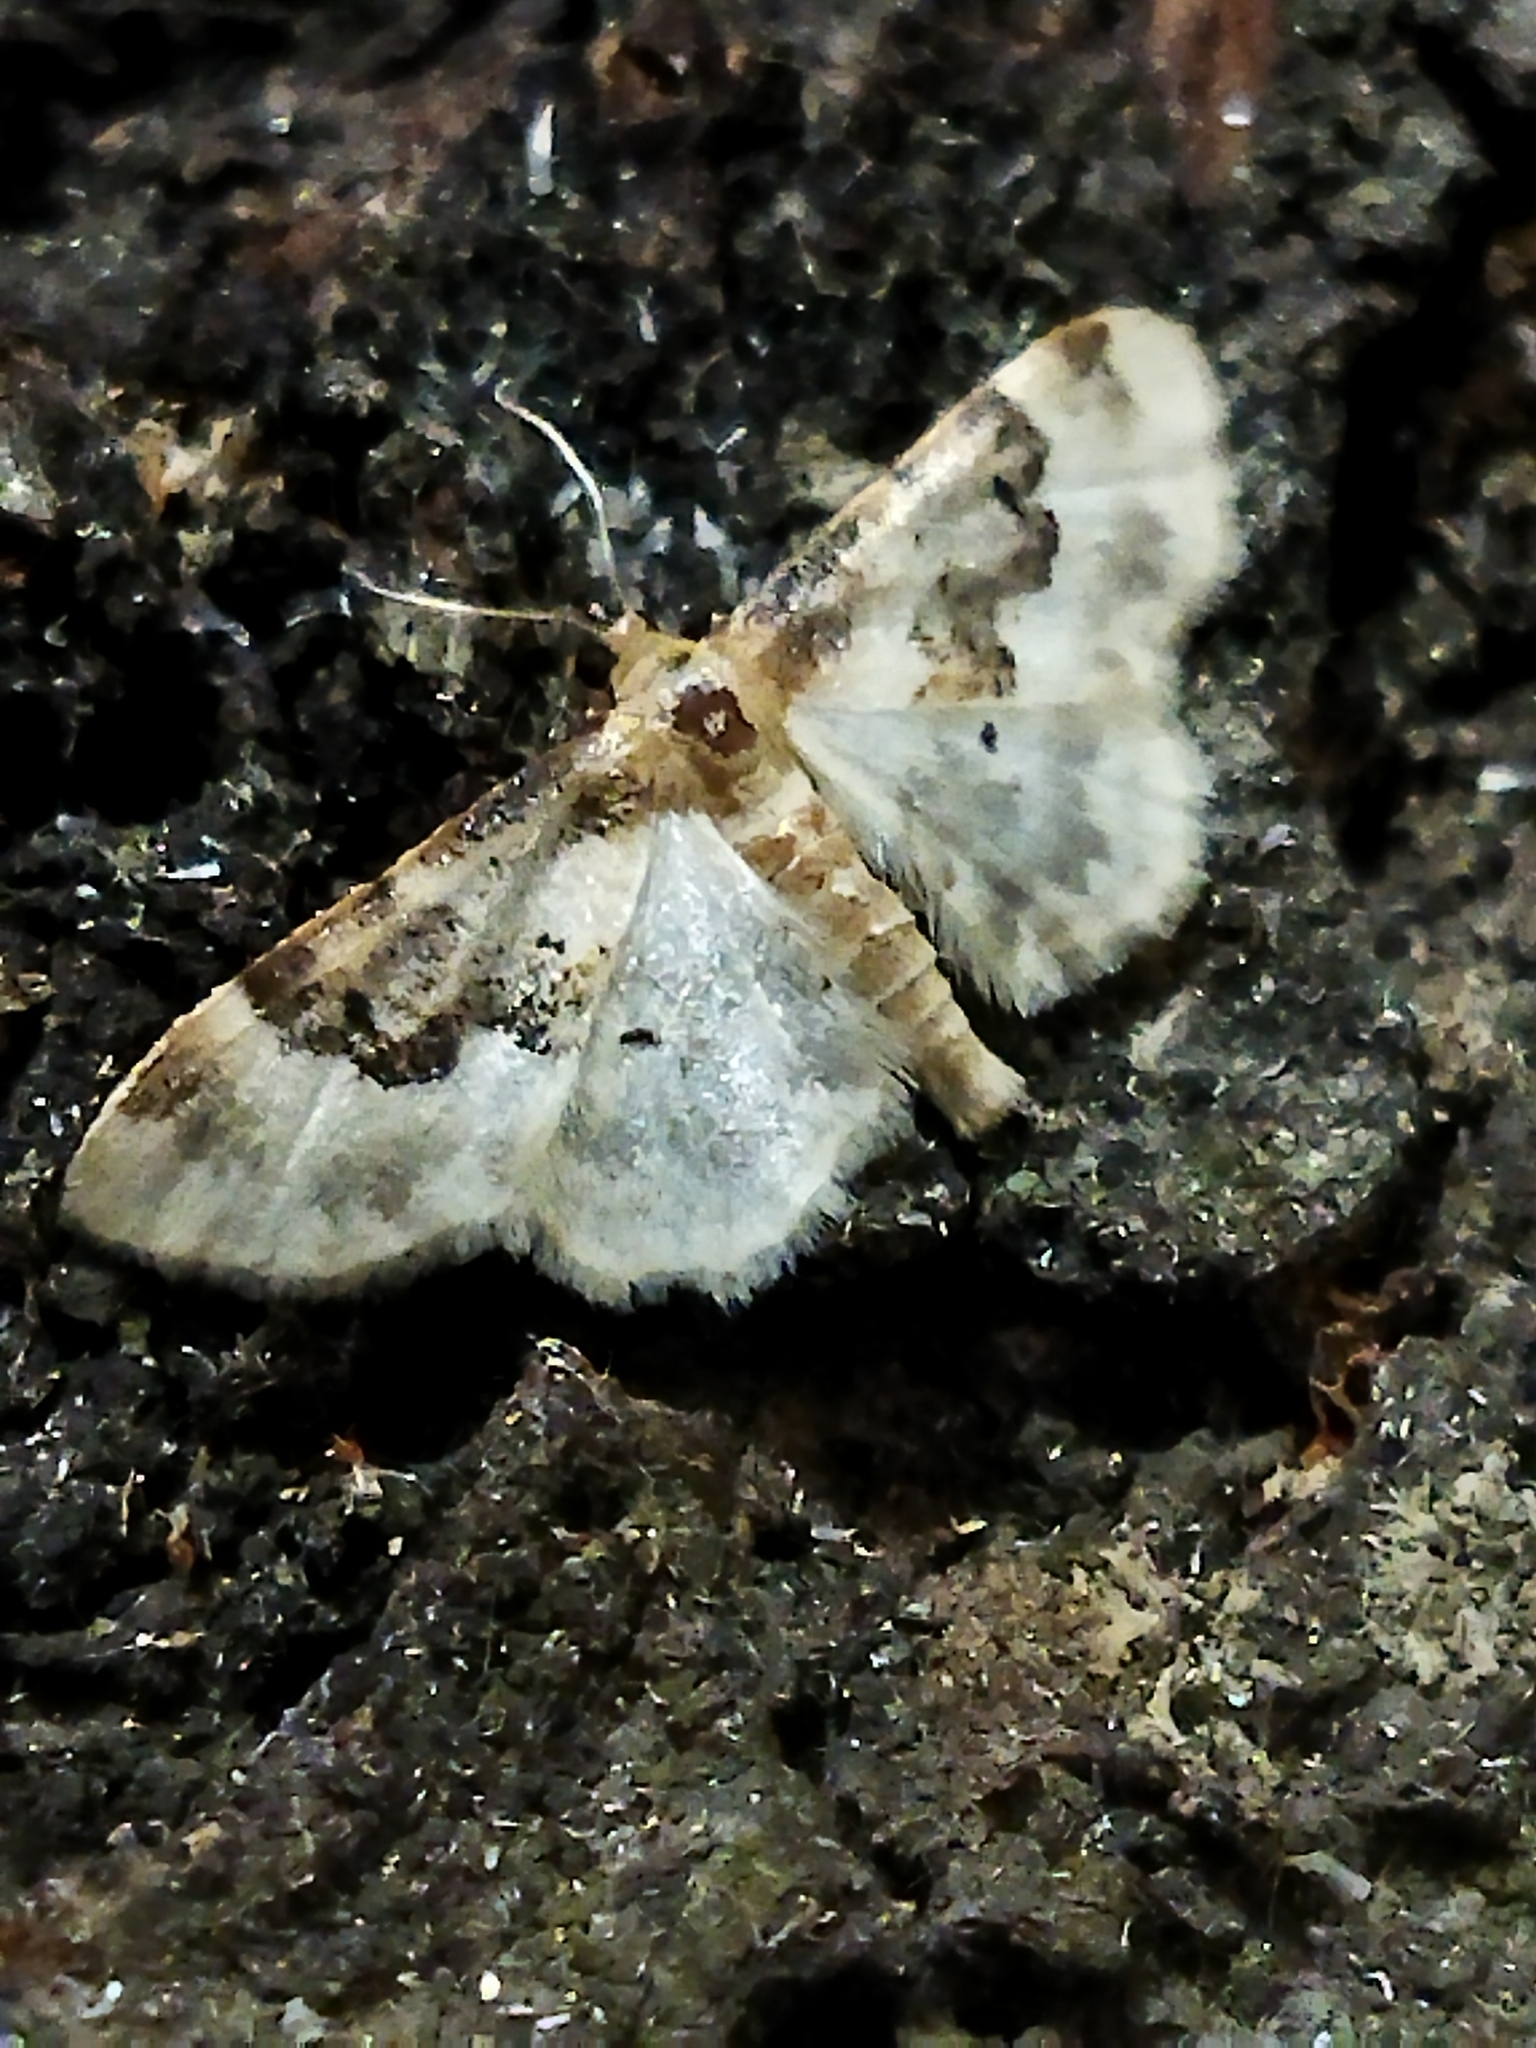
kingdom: Animalia
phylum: Arthropoda
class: Insecta
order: Lepidoptera
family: Geometridae
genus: Idaea
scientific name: Idaea rusticata
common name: Least carpet
